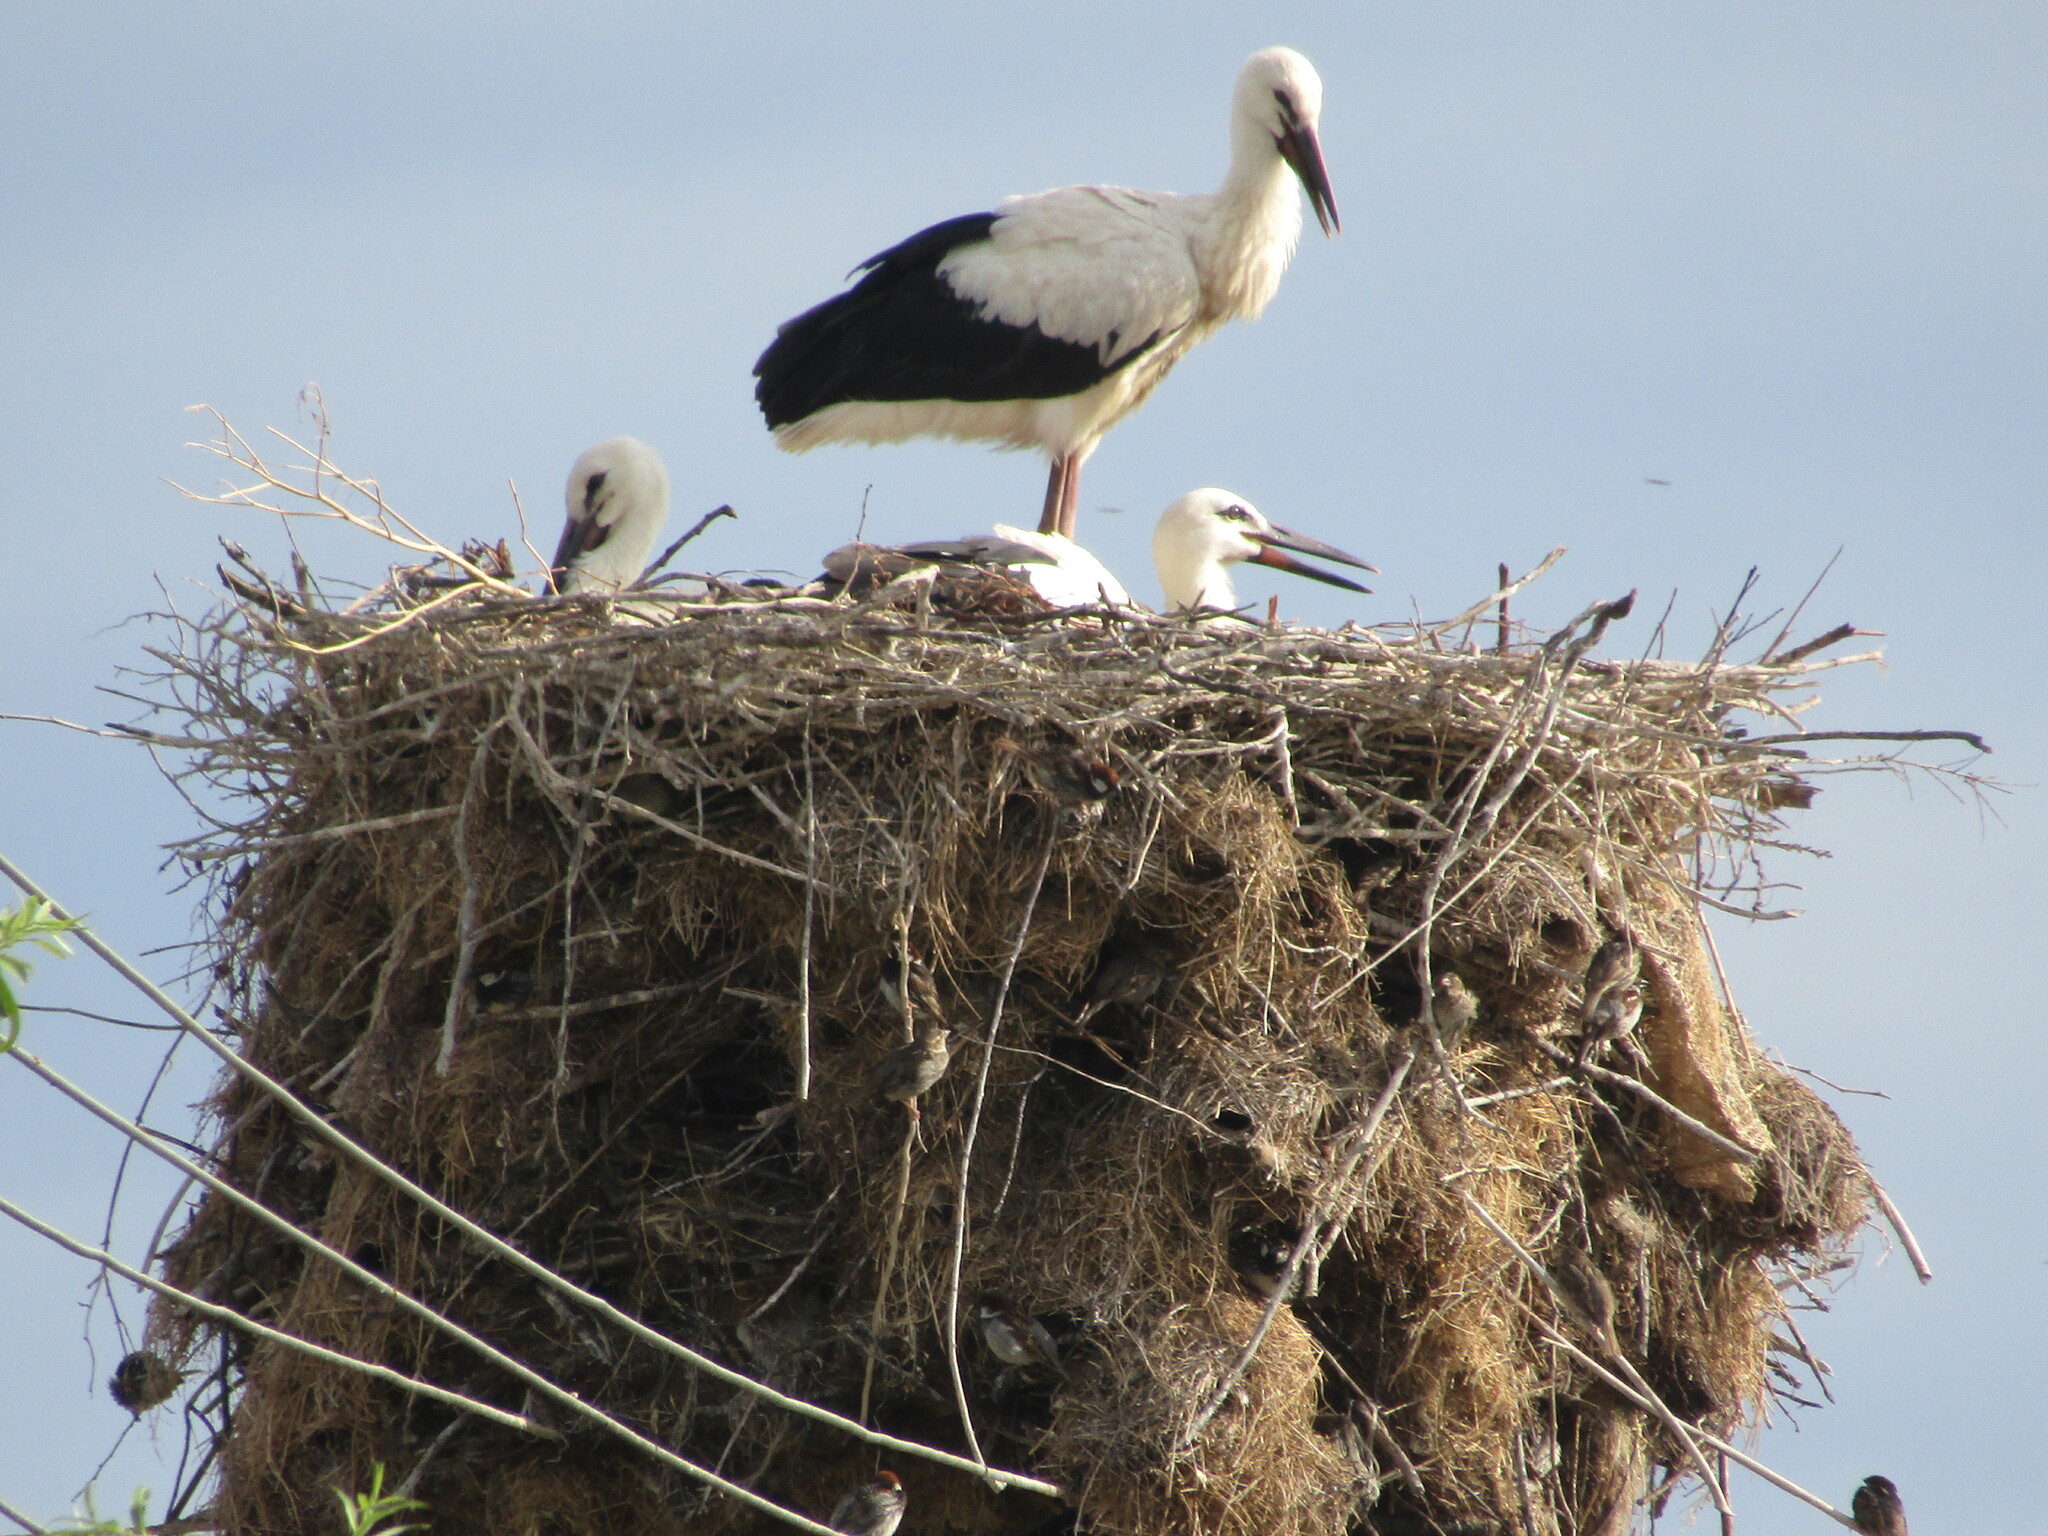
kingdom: Animalia
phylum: Chordata
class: Aves
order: Ciconiiformes
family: Ciconiidae
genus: Ciconia
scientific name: Ciconia ciconia
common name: White stork
